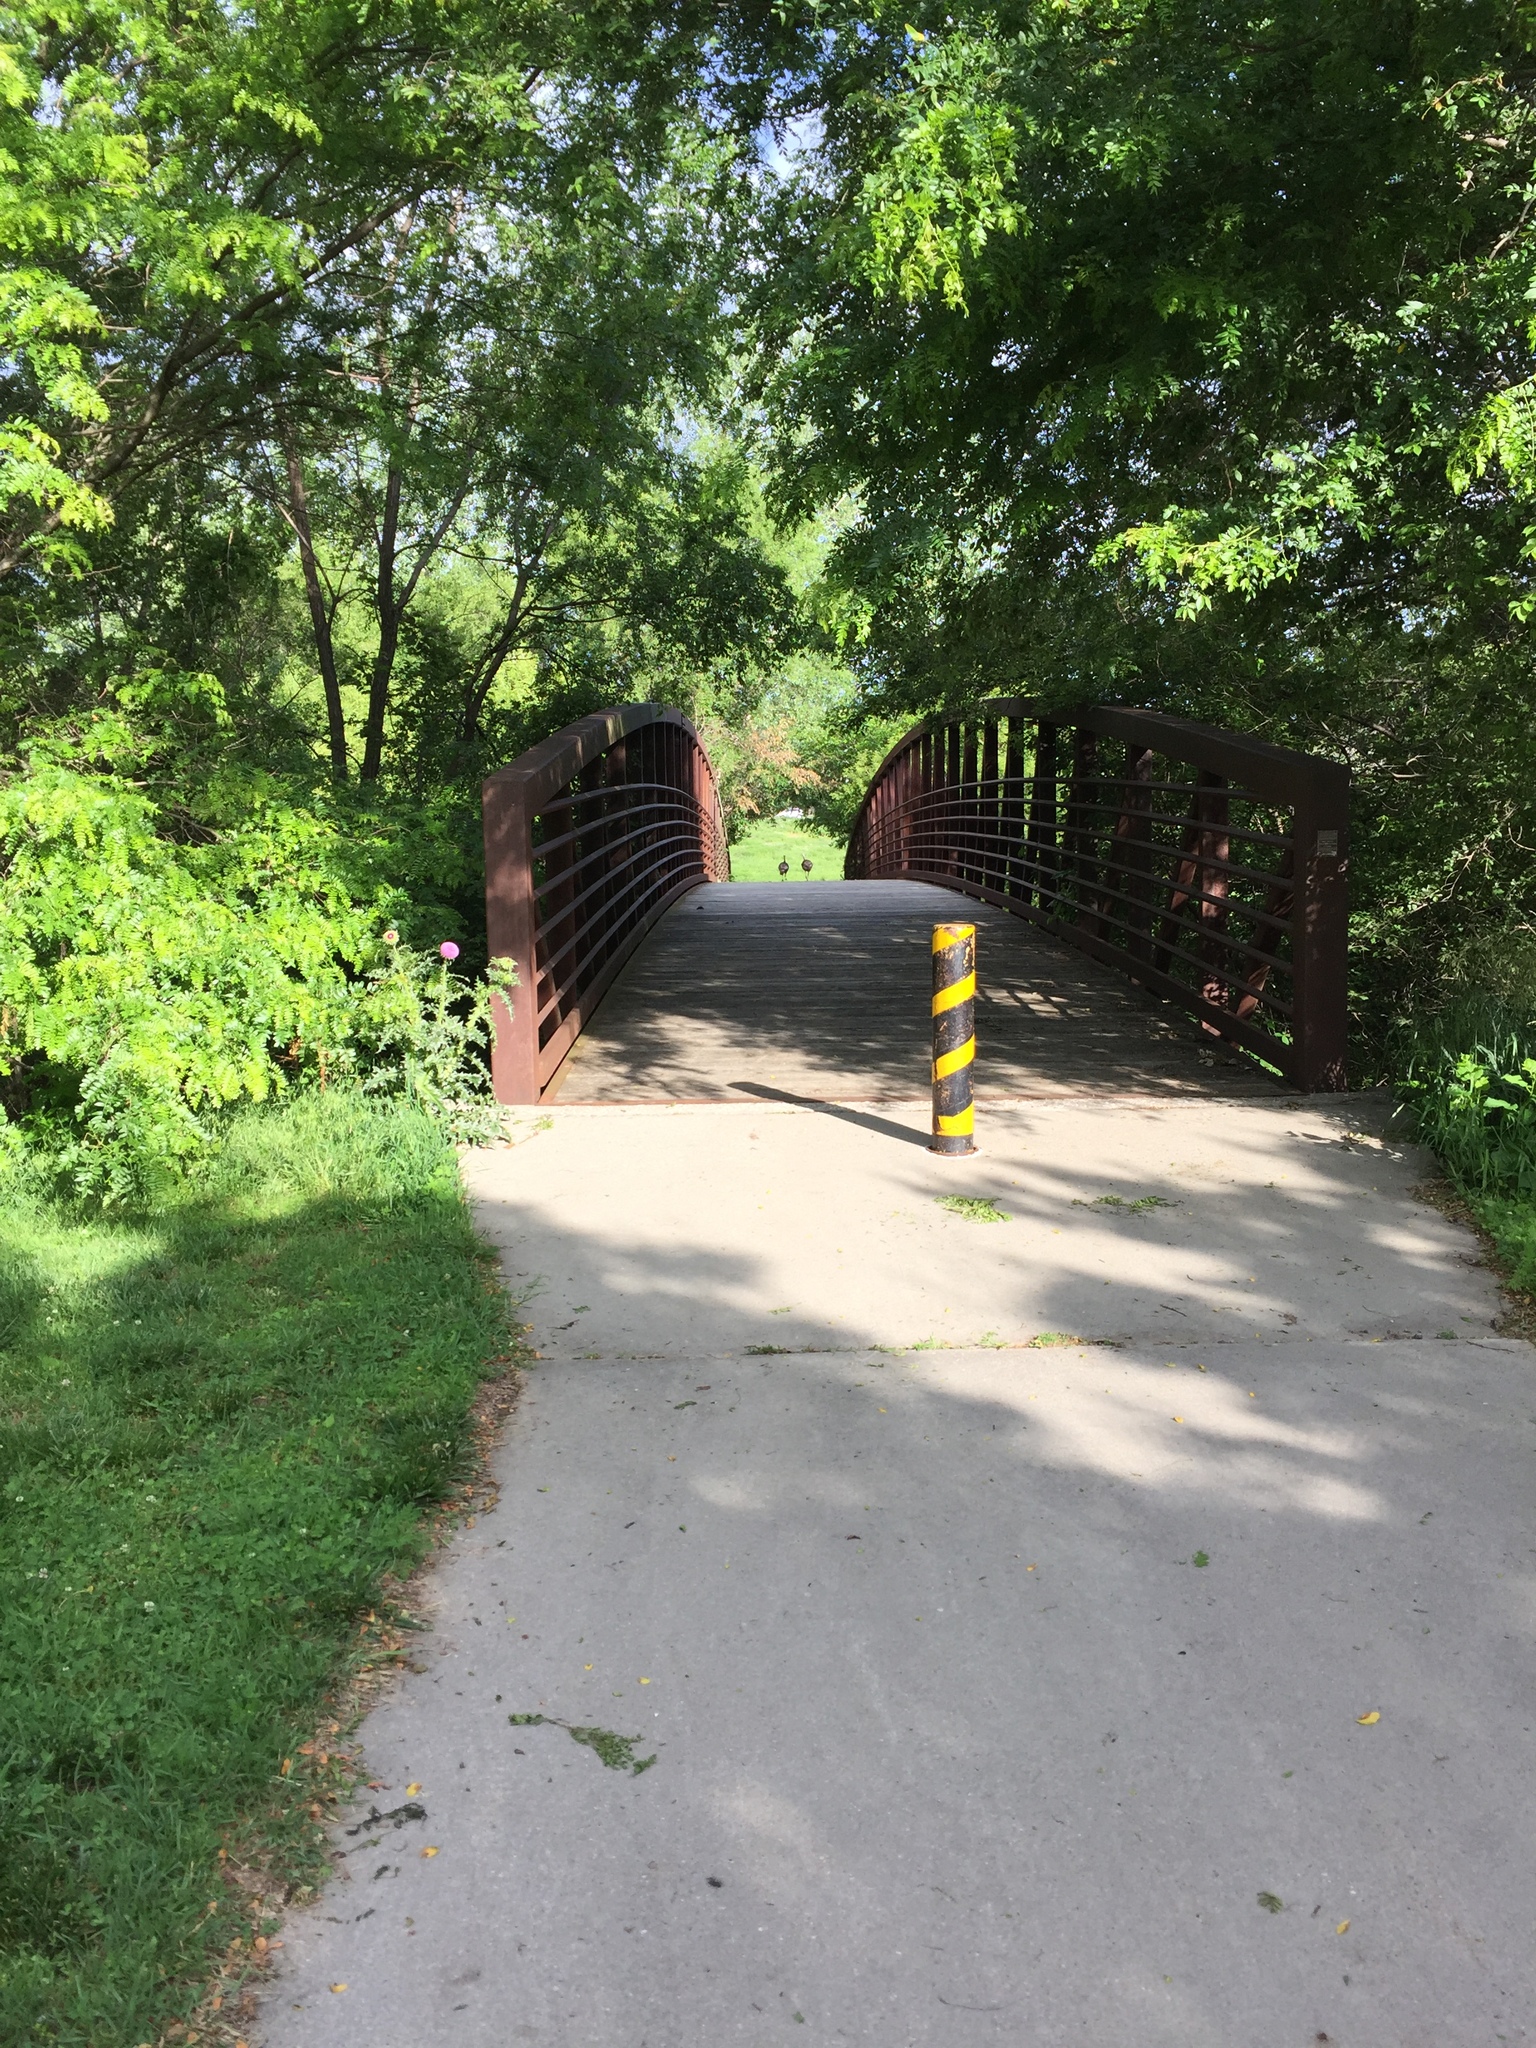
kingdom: Animalia
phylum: Chordata
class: Aves
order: Galliformes
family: Phasianidae
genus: Meleagris
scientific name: Meleagris gallopavo
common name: Wild turkey
